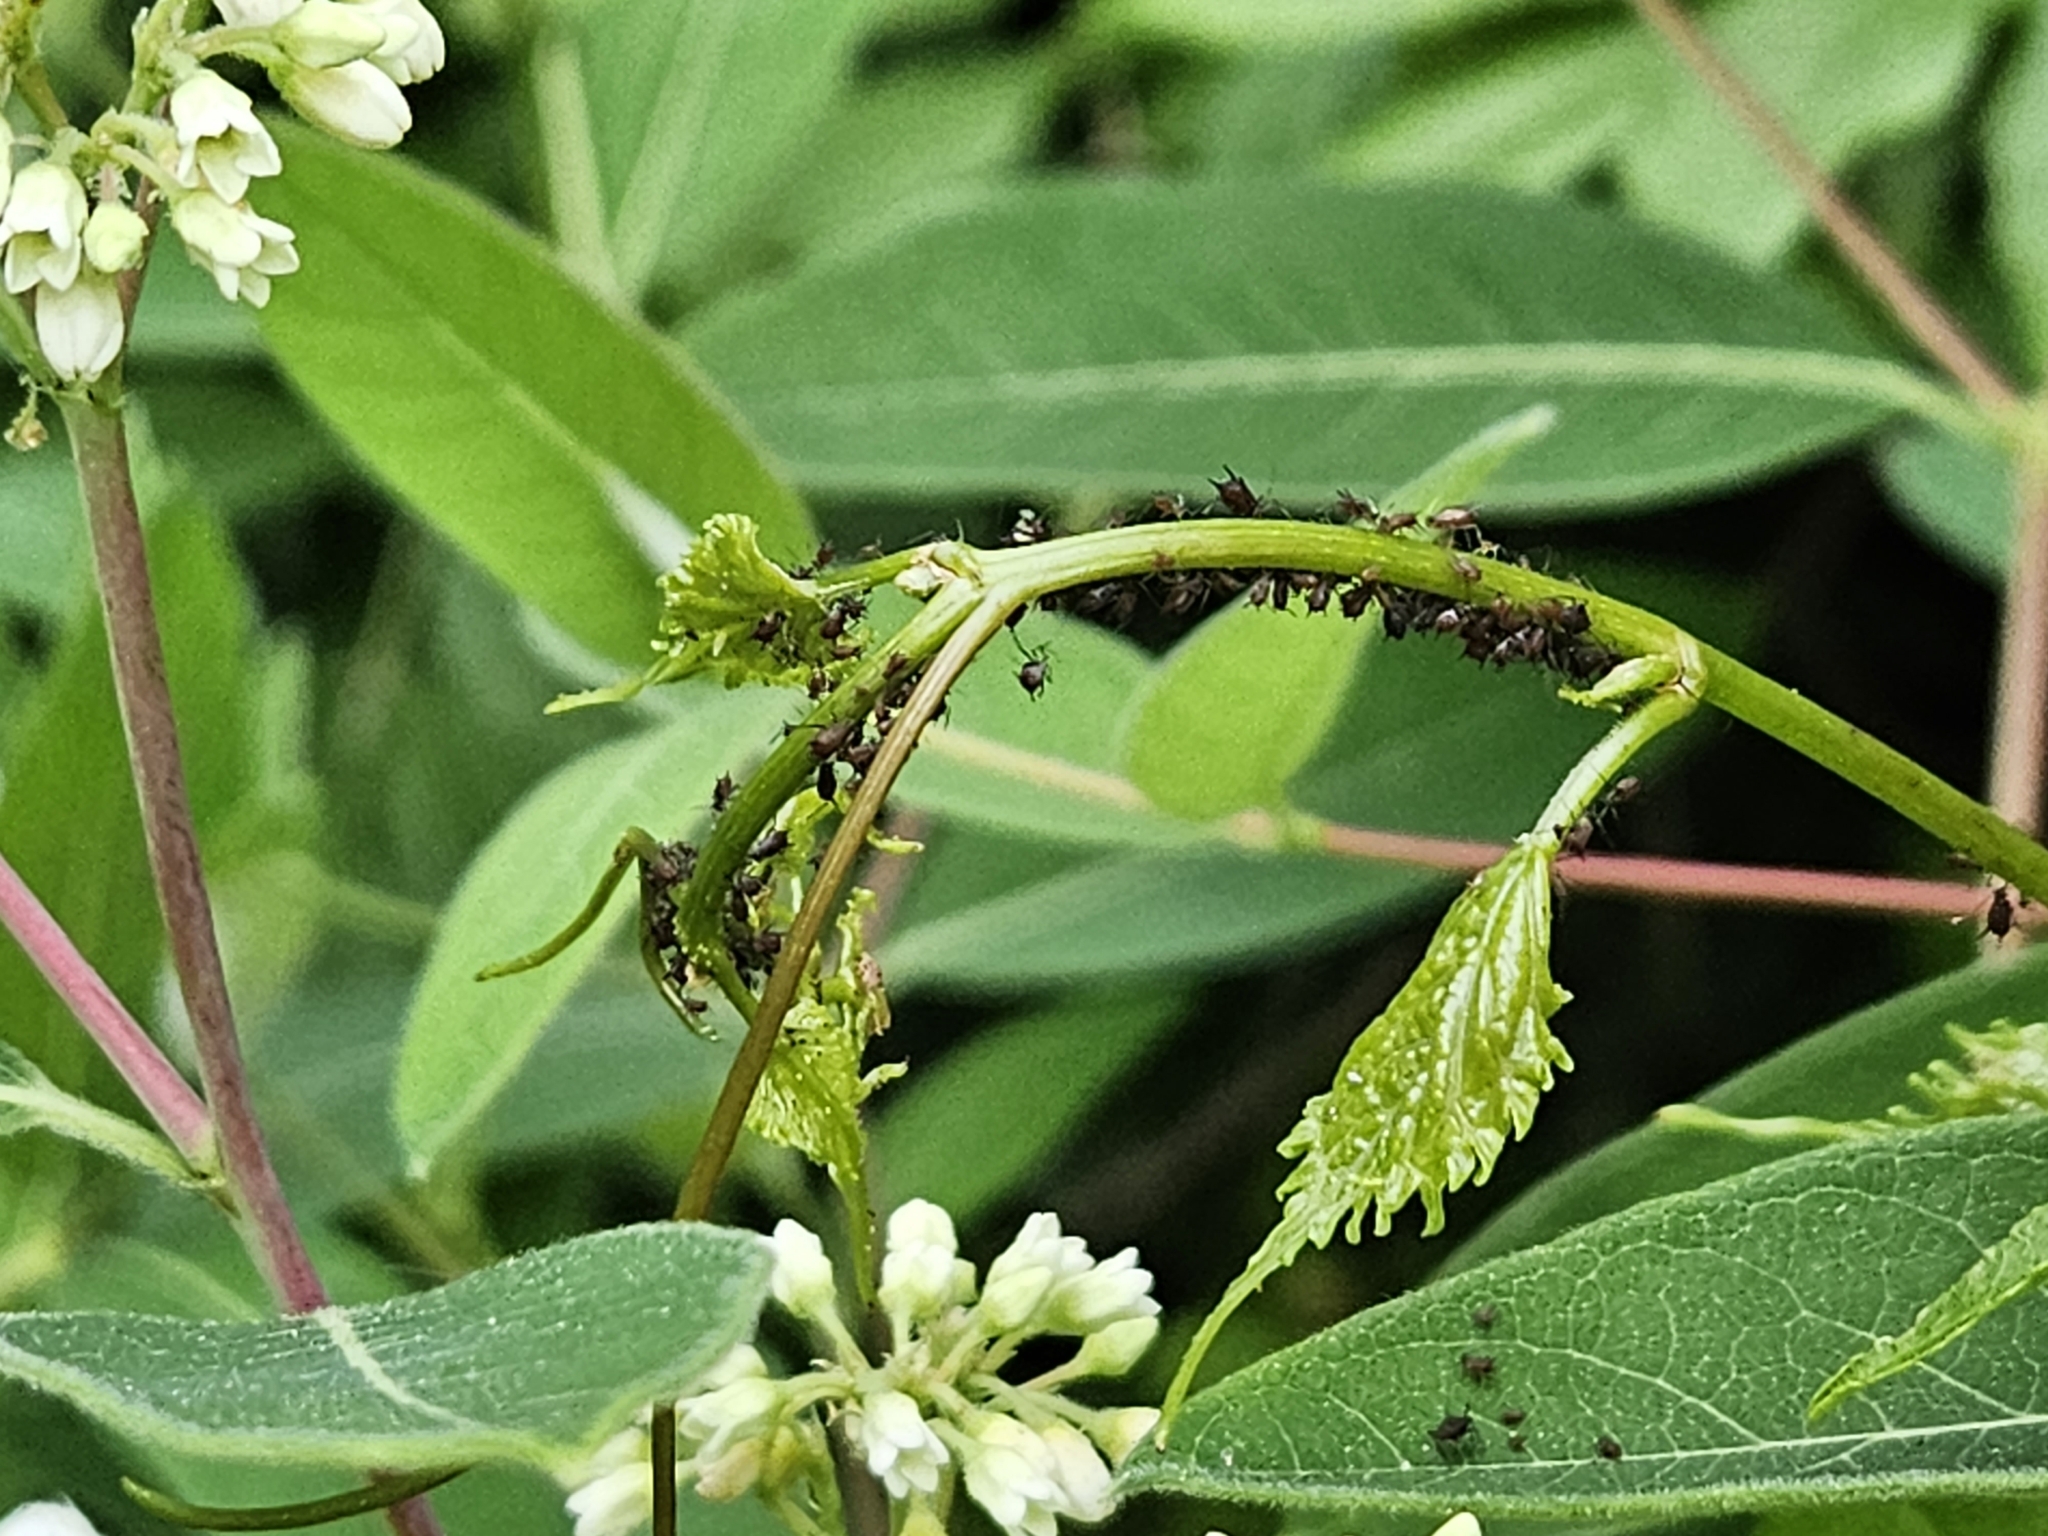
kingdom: Animalia
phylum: Arthropoda
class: Insecta
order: Hemiptera
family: Aphididae
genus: Aphis
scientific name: Aphis illinoisensis
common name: Grapevine aphid
